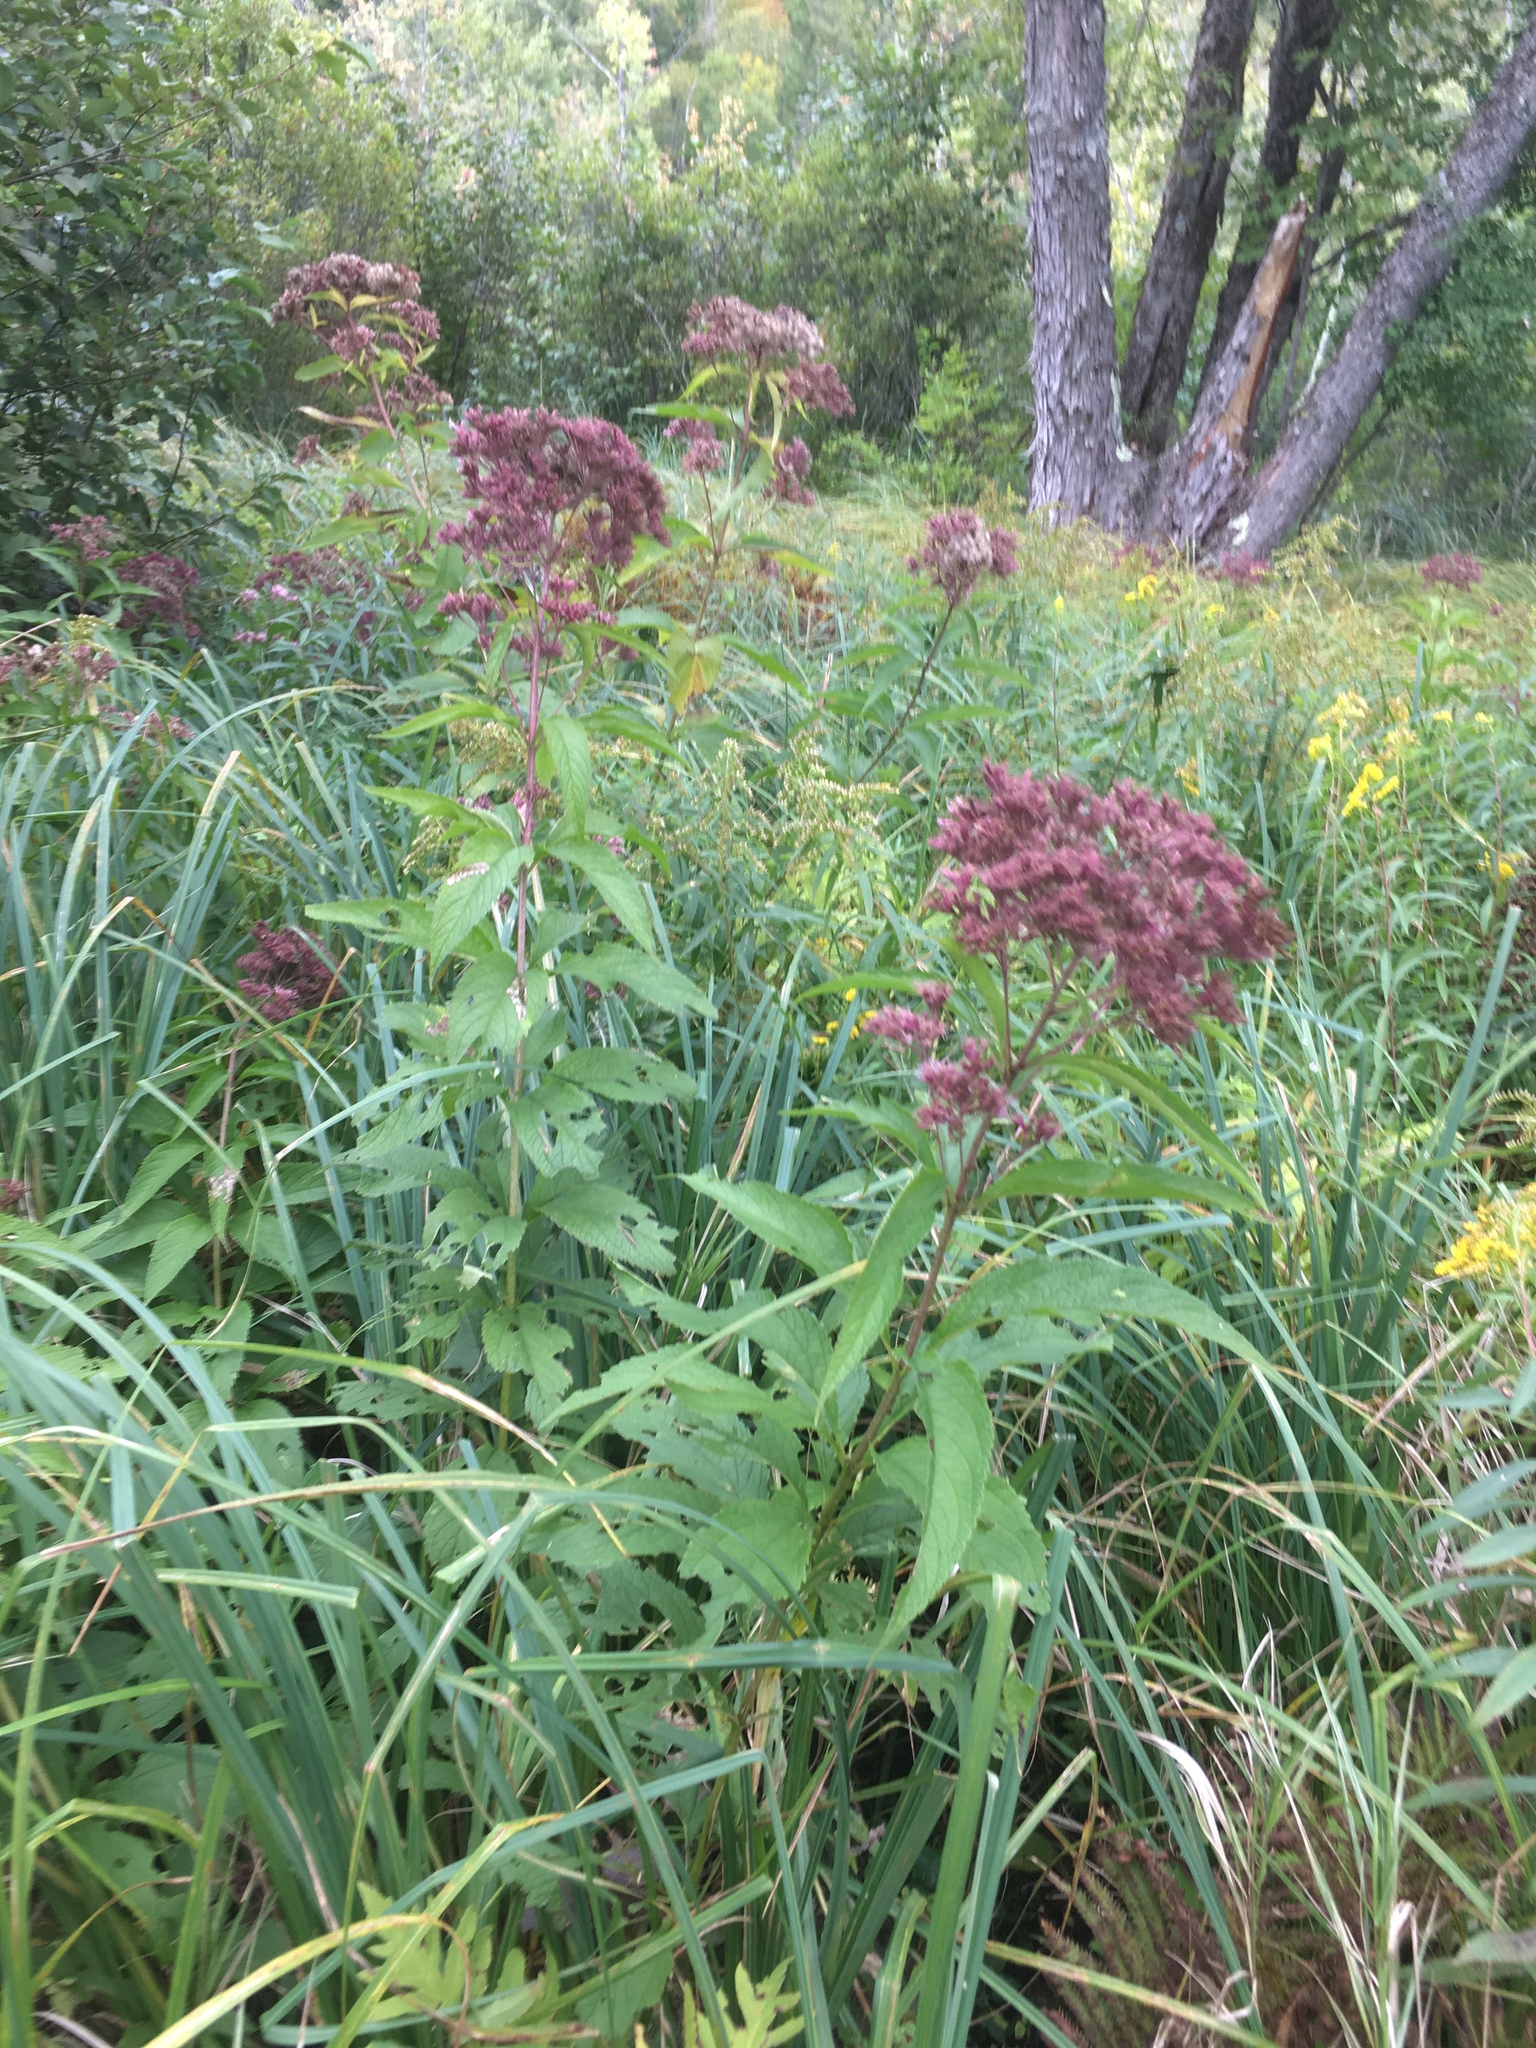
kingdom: Plantae
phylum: Tracheophyta
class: Magnoliopsida
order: Asterales
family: Asteraceae
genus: Eutrochium
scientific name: Eutrochium maculatum
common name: Spotted joe pye weed
